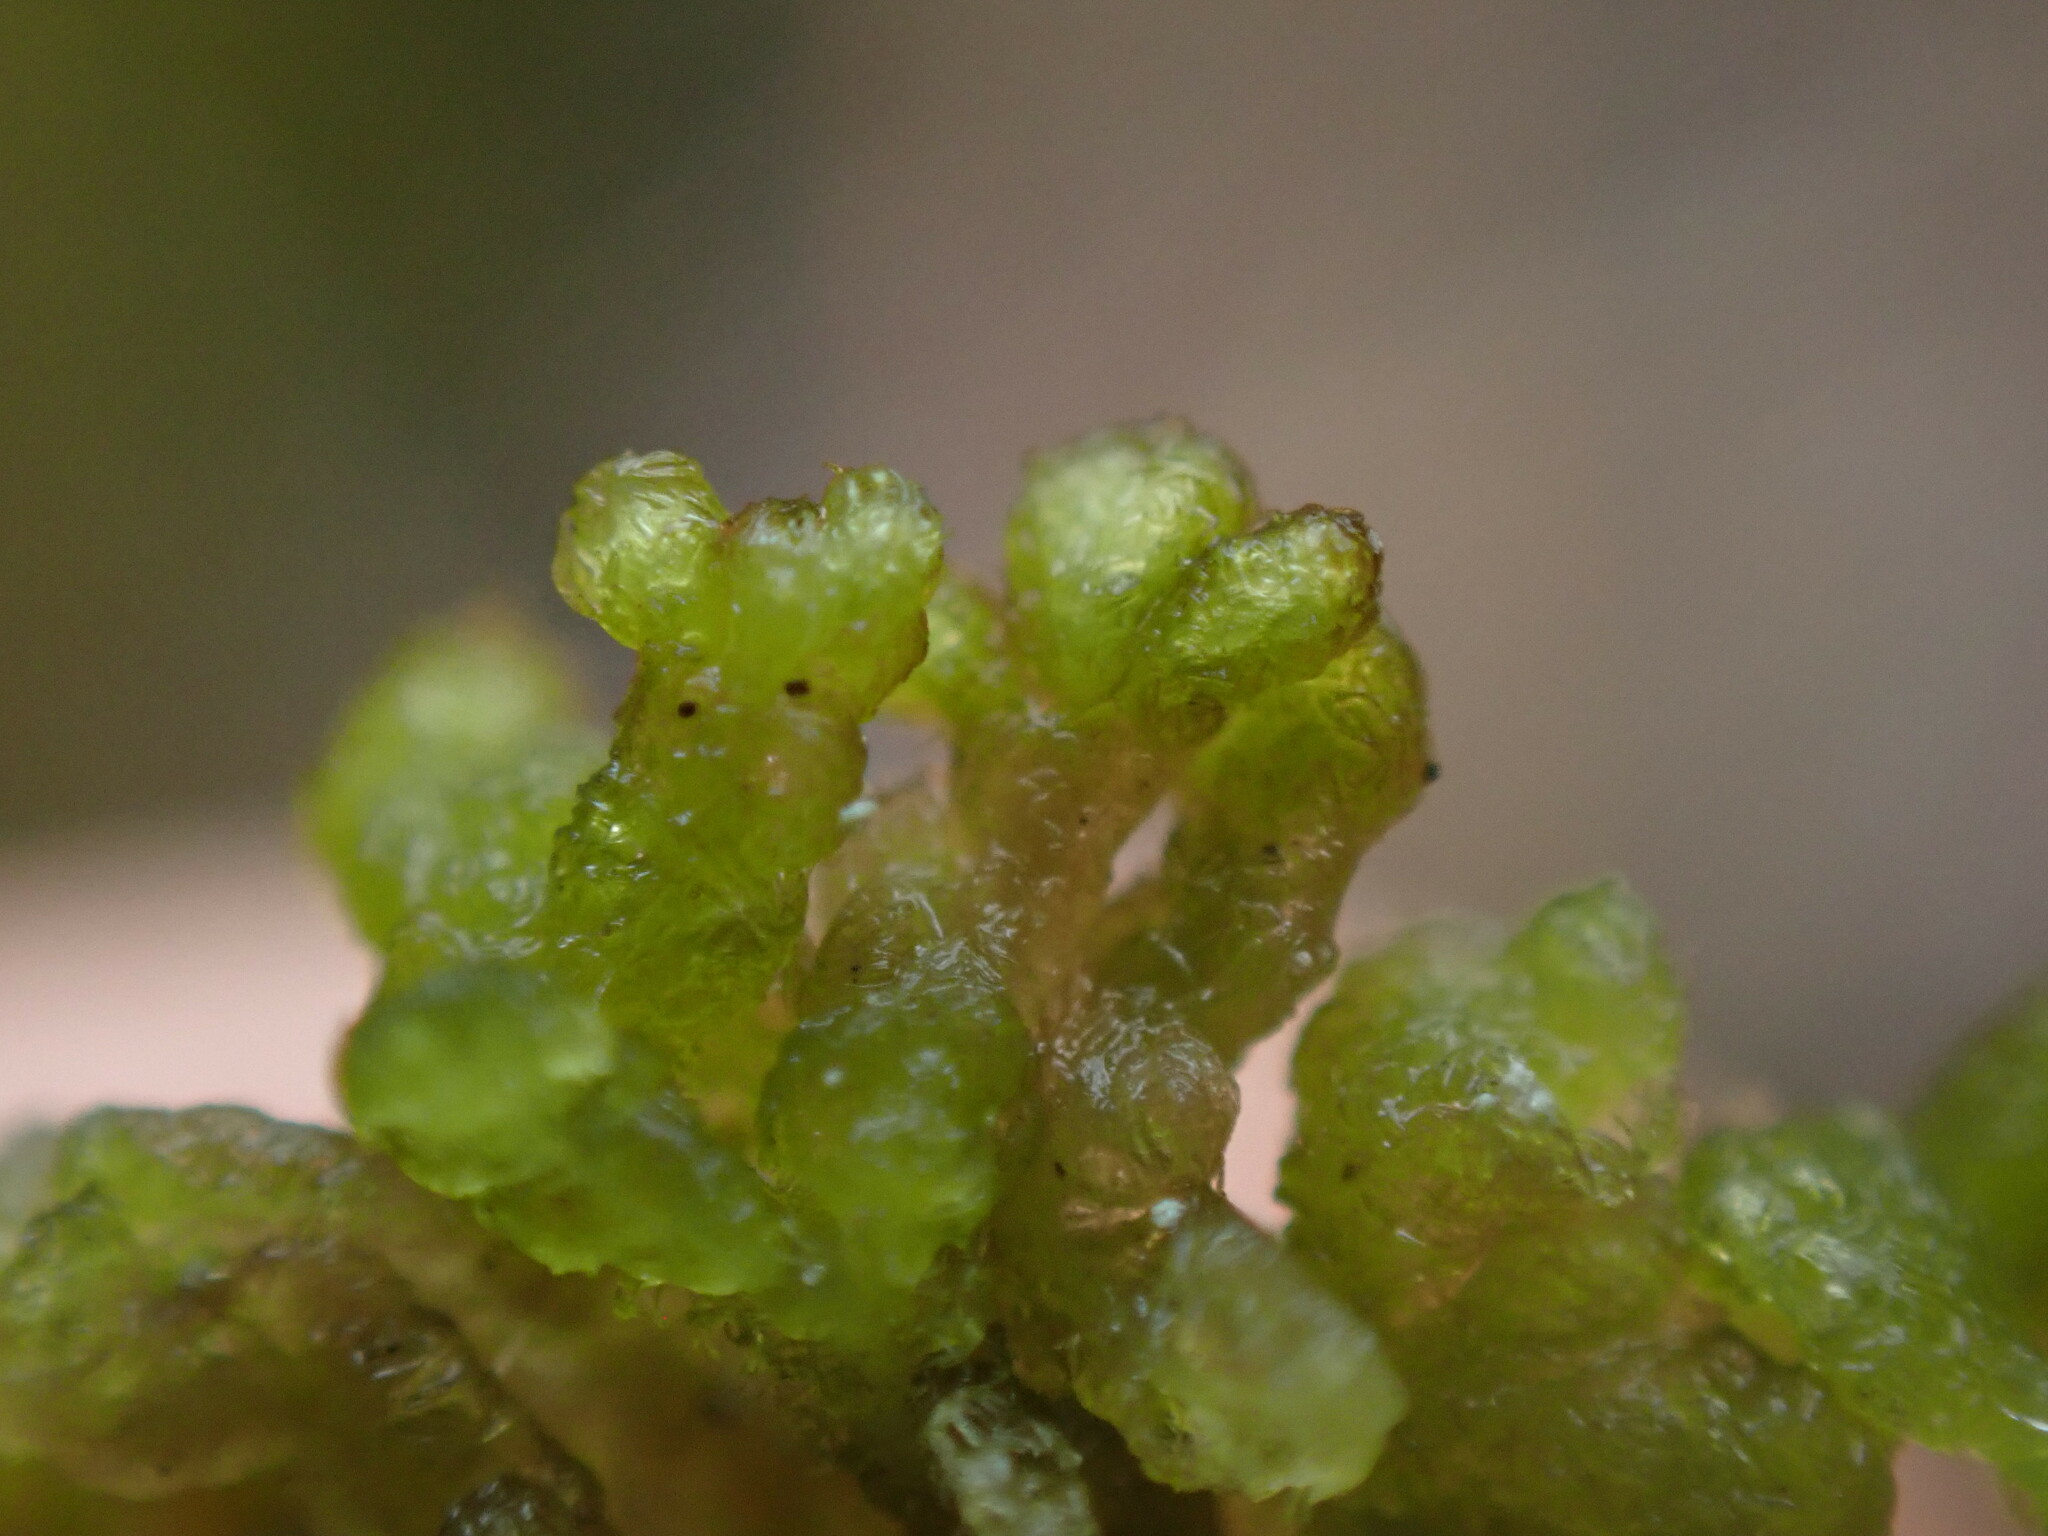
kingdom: Plantae
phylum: Marchantiophyta
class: Jungermanniopsida
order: Ptilidiales
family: Ptilidiaceae
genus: Ptilidium
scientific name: Ptilidium ciliare
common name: Ciliate fringewort
